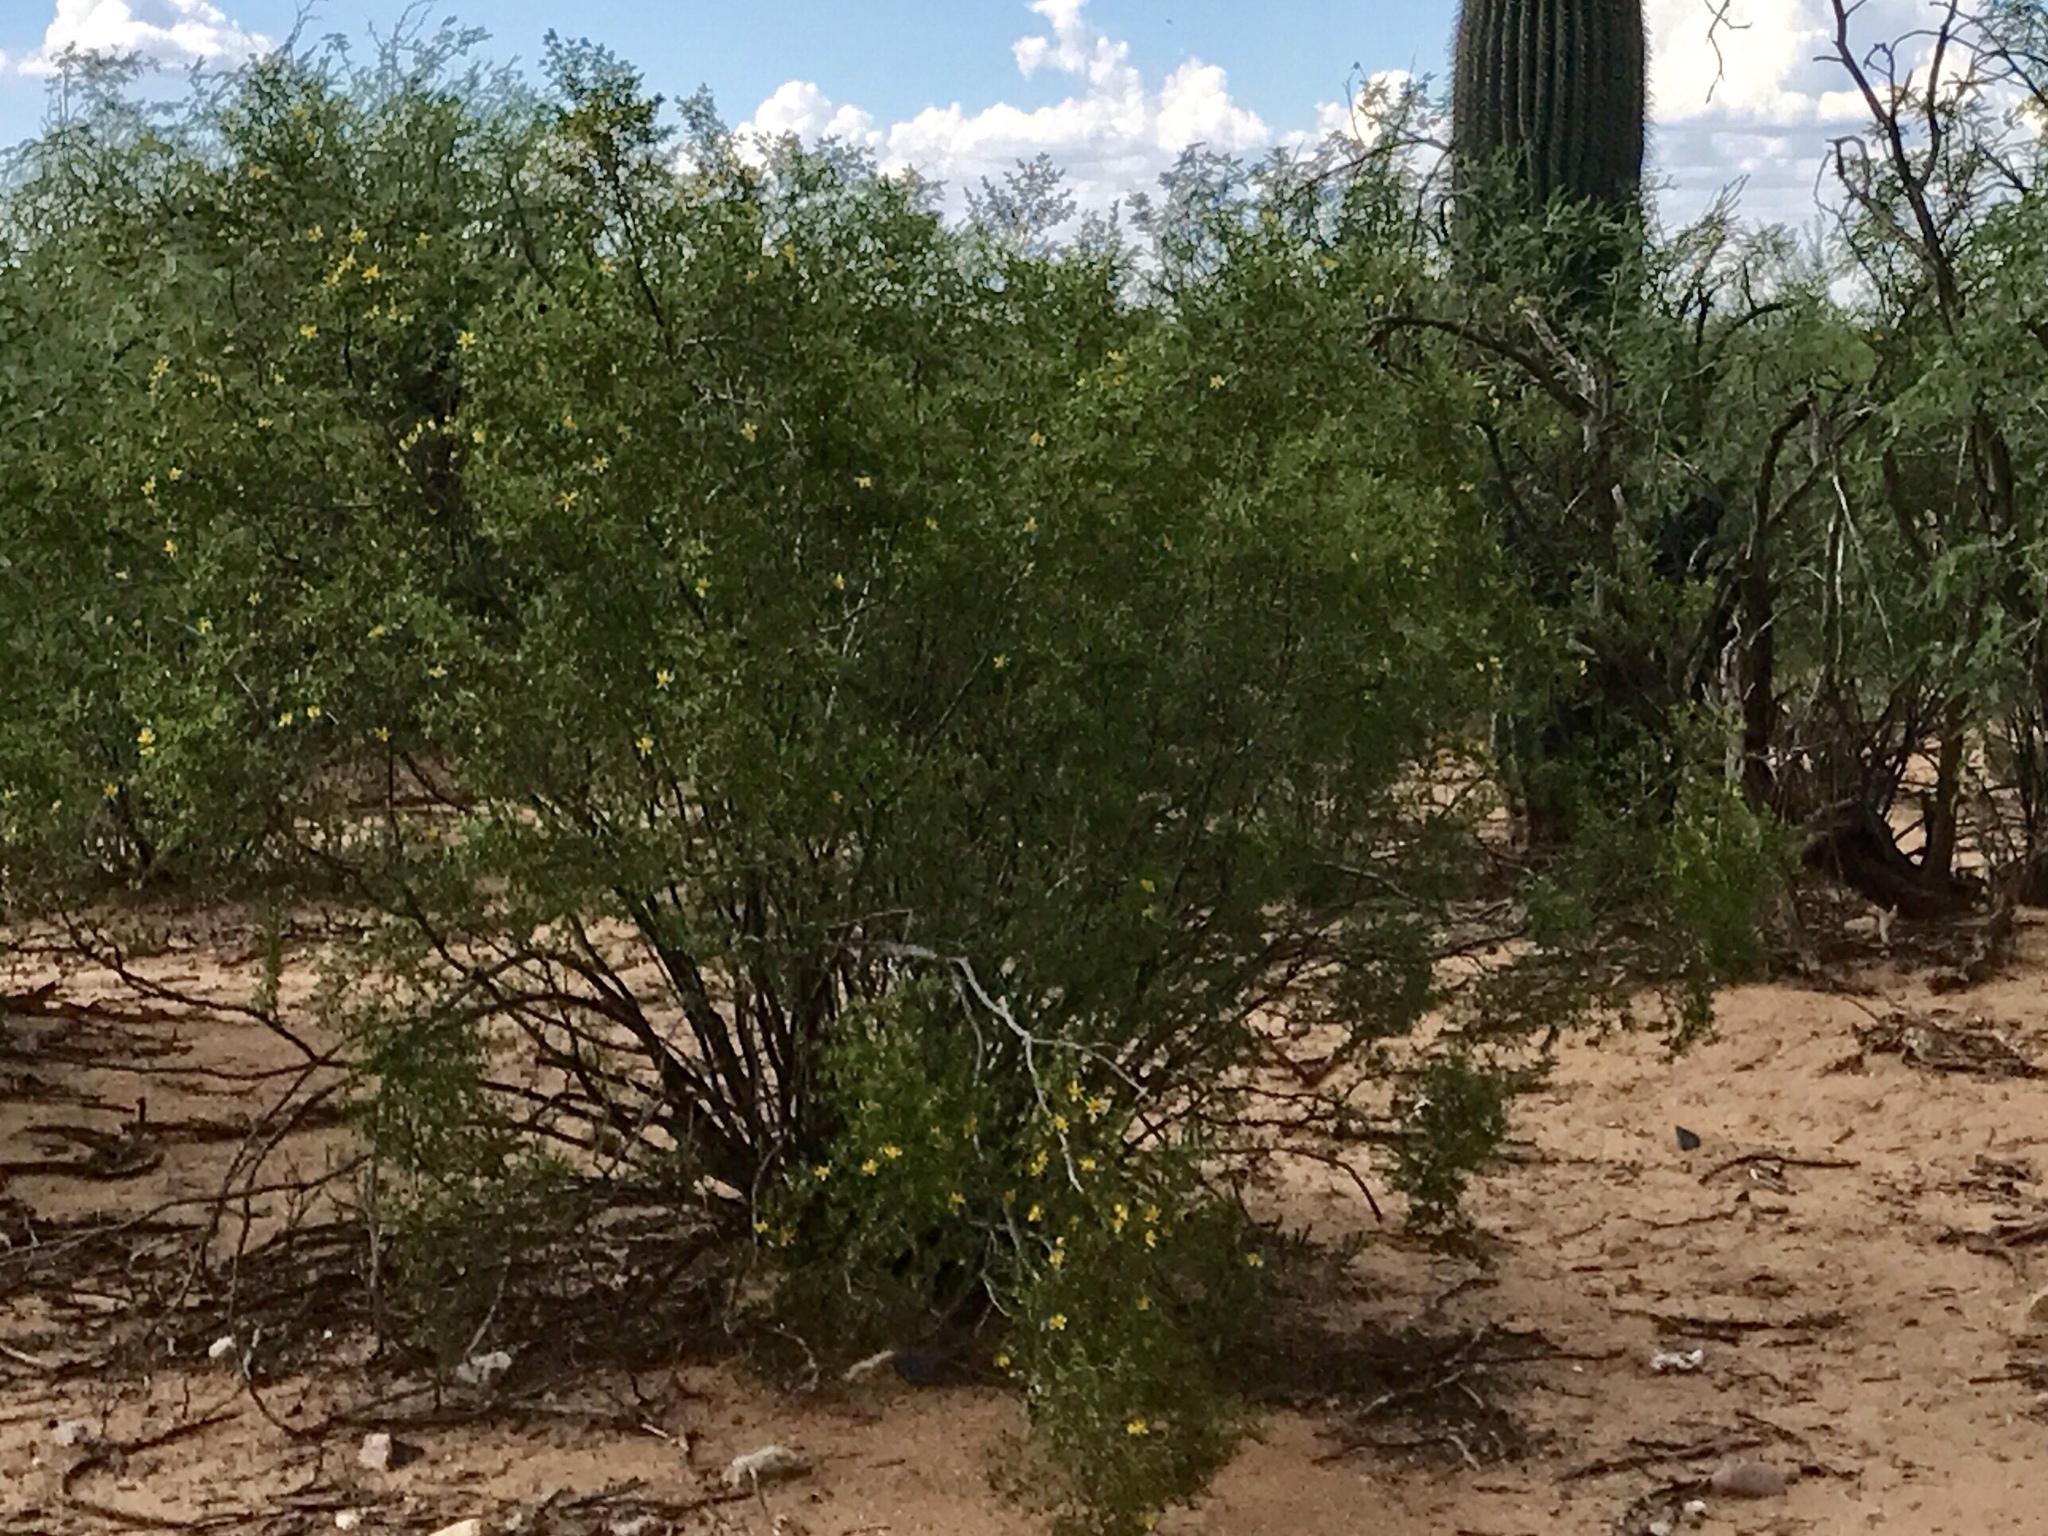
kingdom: Plantae
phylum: Tracheophyta
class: Magnoliopsida
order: Zygophyllales
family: Zygophyllaceae
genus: Larrea
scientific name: Larrea tridentata
